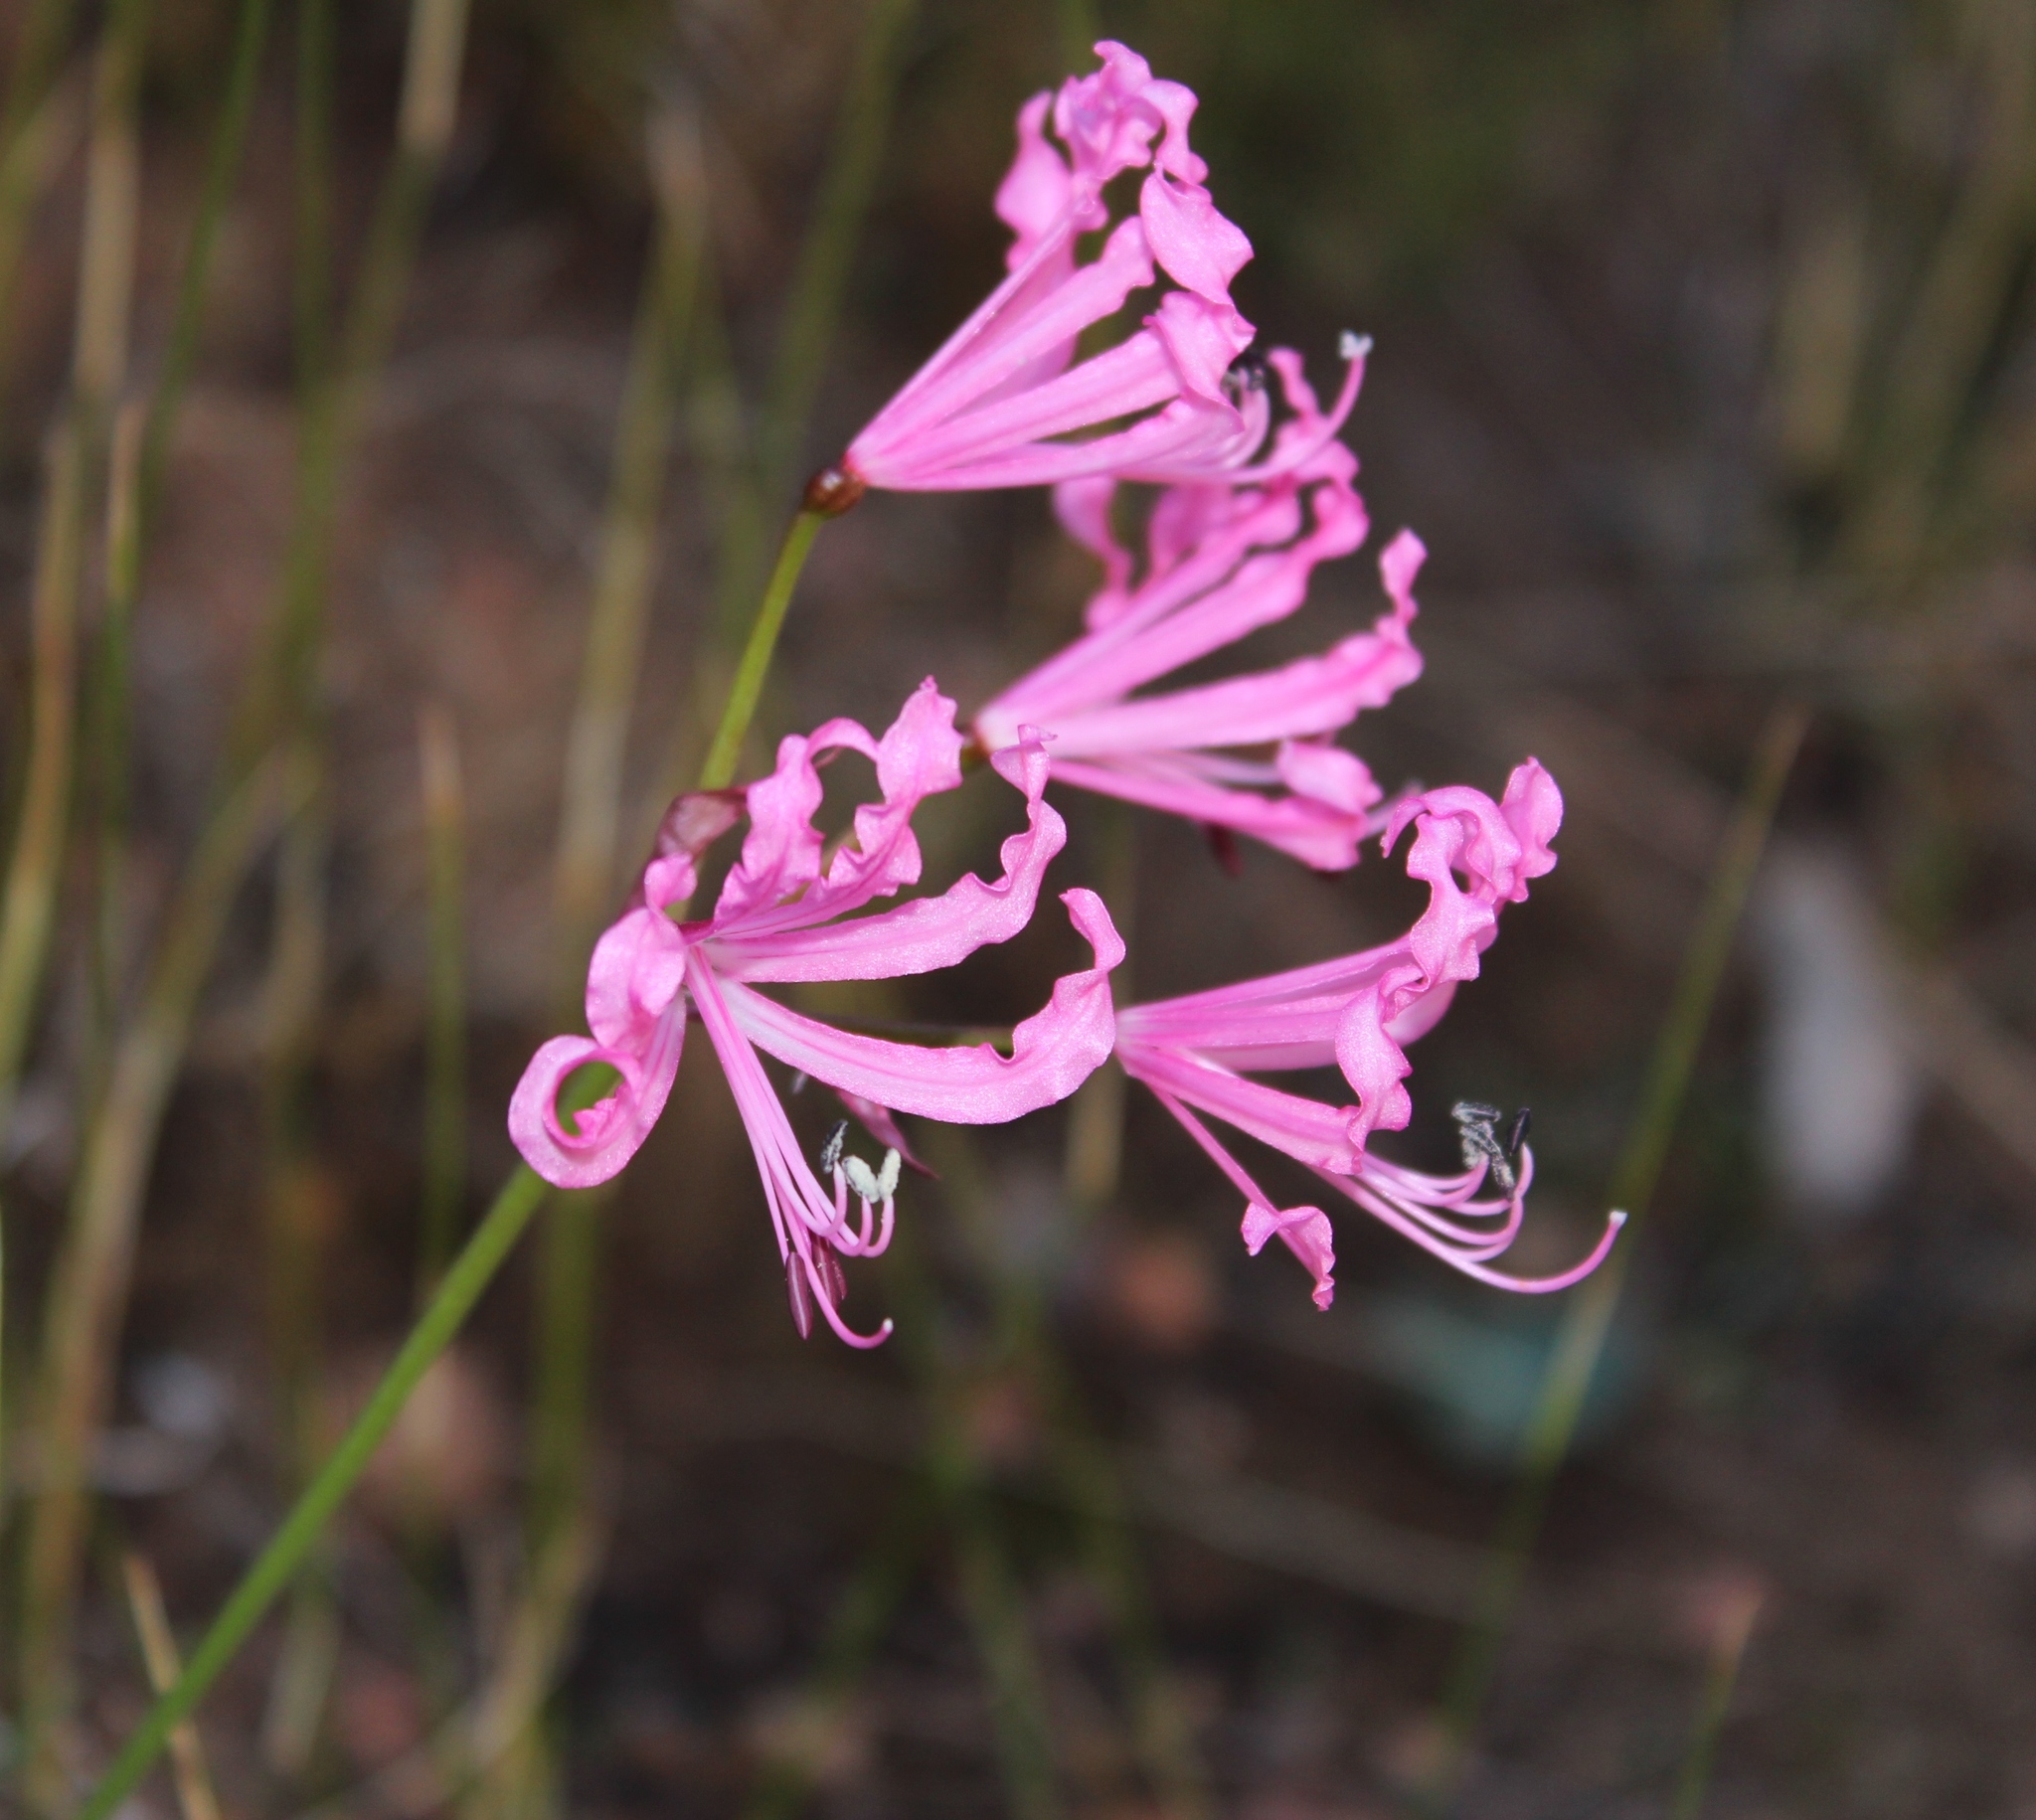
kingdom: Plantae
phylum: Tracheophyta
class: Liliopsida
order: Asparagales
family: Amaryllidaceae
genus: Nerine
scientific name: Nerine humilis
